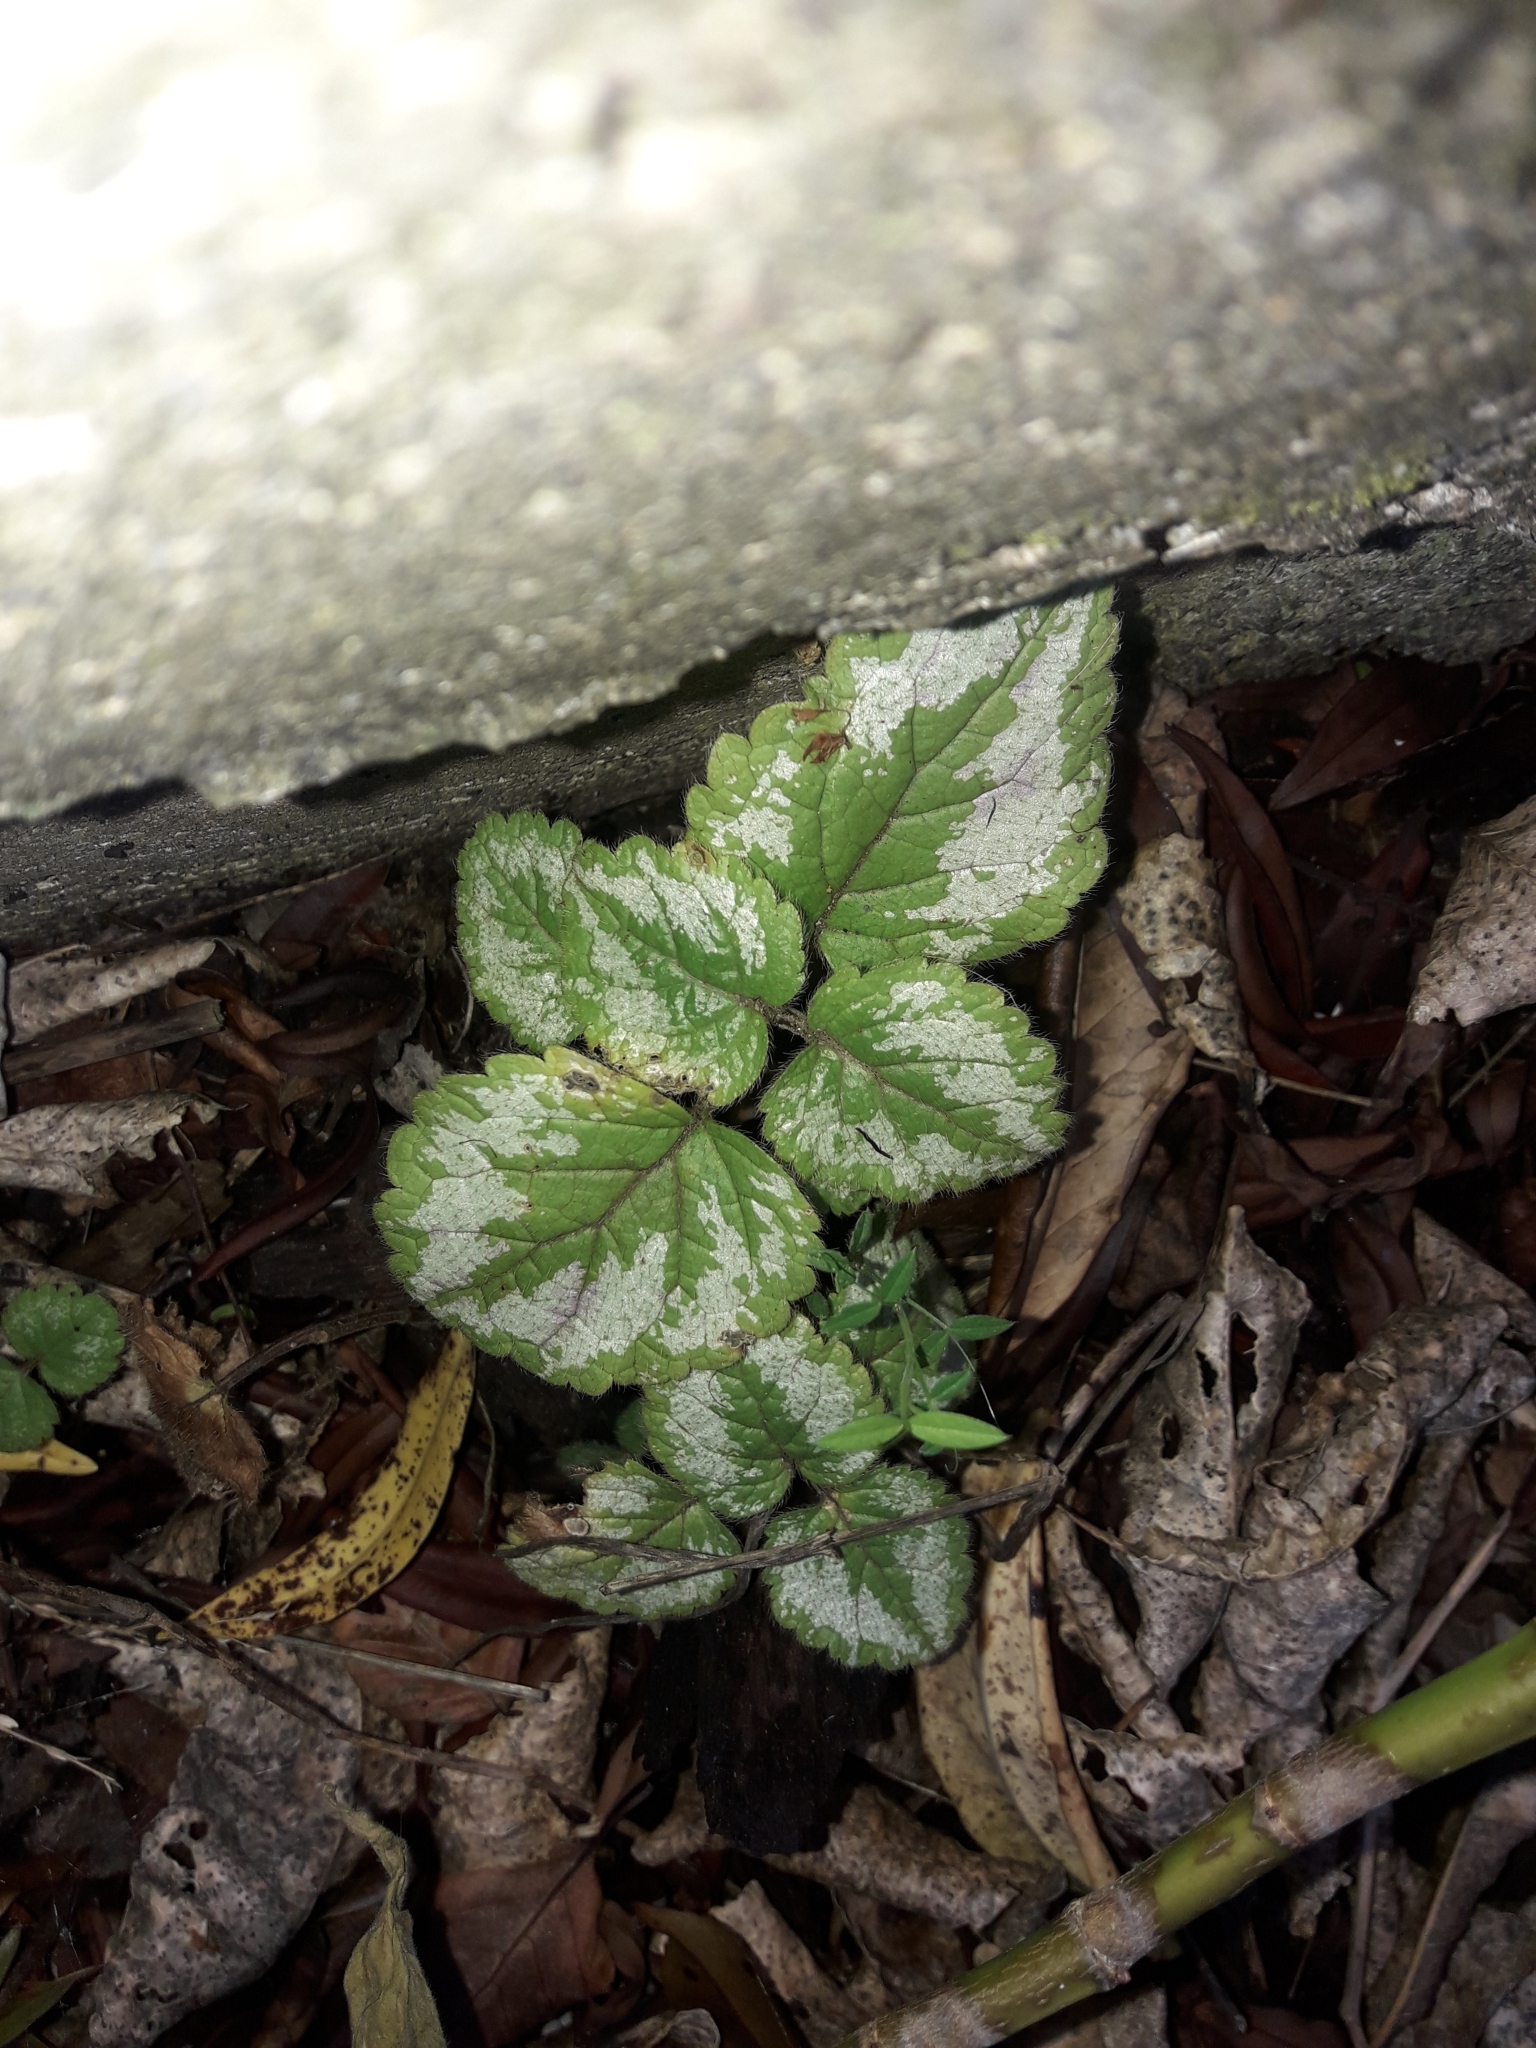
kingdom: Plantae
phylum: Tracheophyta
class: Magnoliopsida
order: Lamiales
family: Lamiaceae
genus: Lamium
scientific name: Lamium galeobdolon
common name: Yellow archangel
